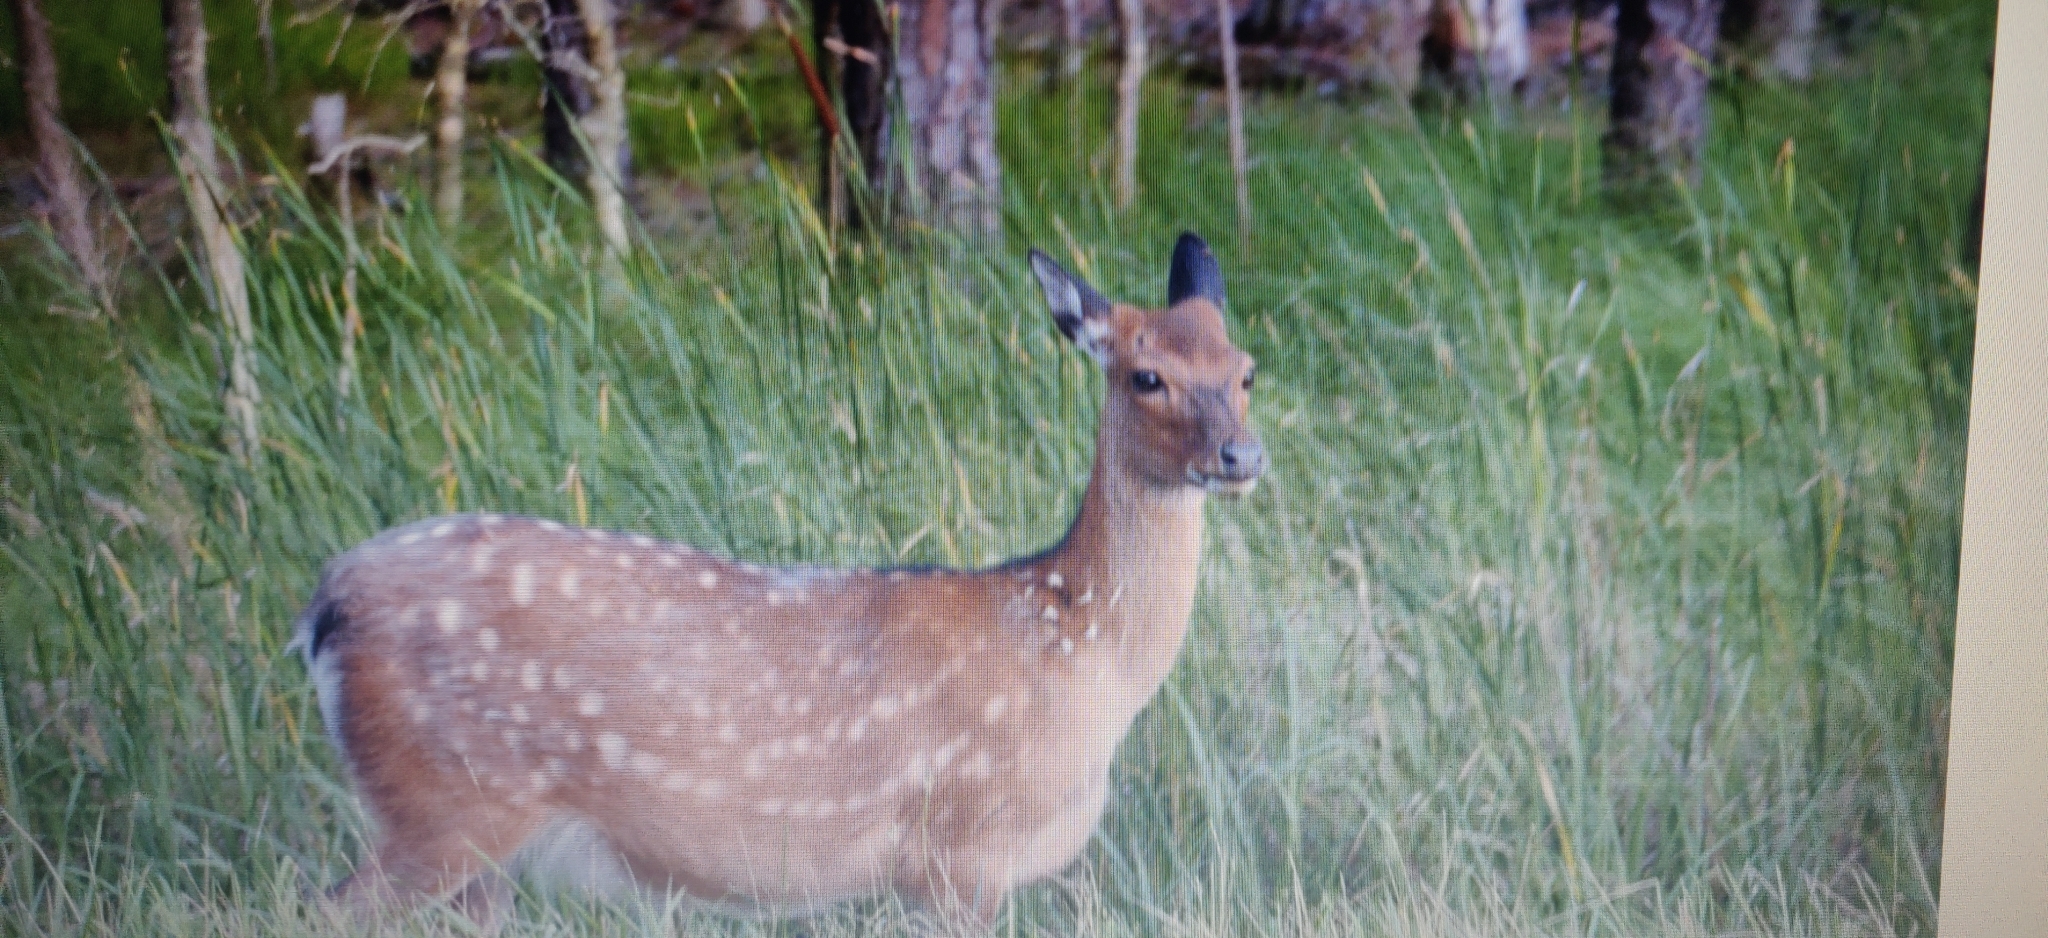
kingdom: Animalia
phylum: Chordata
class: Mammalia
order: Artiodactyla
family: Cervidae
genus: Cervus
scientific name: Cervus nippon
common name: Sika deer
